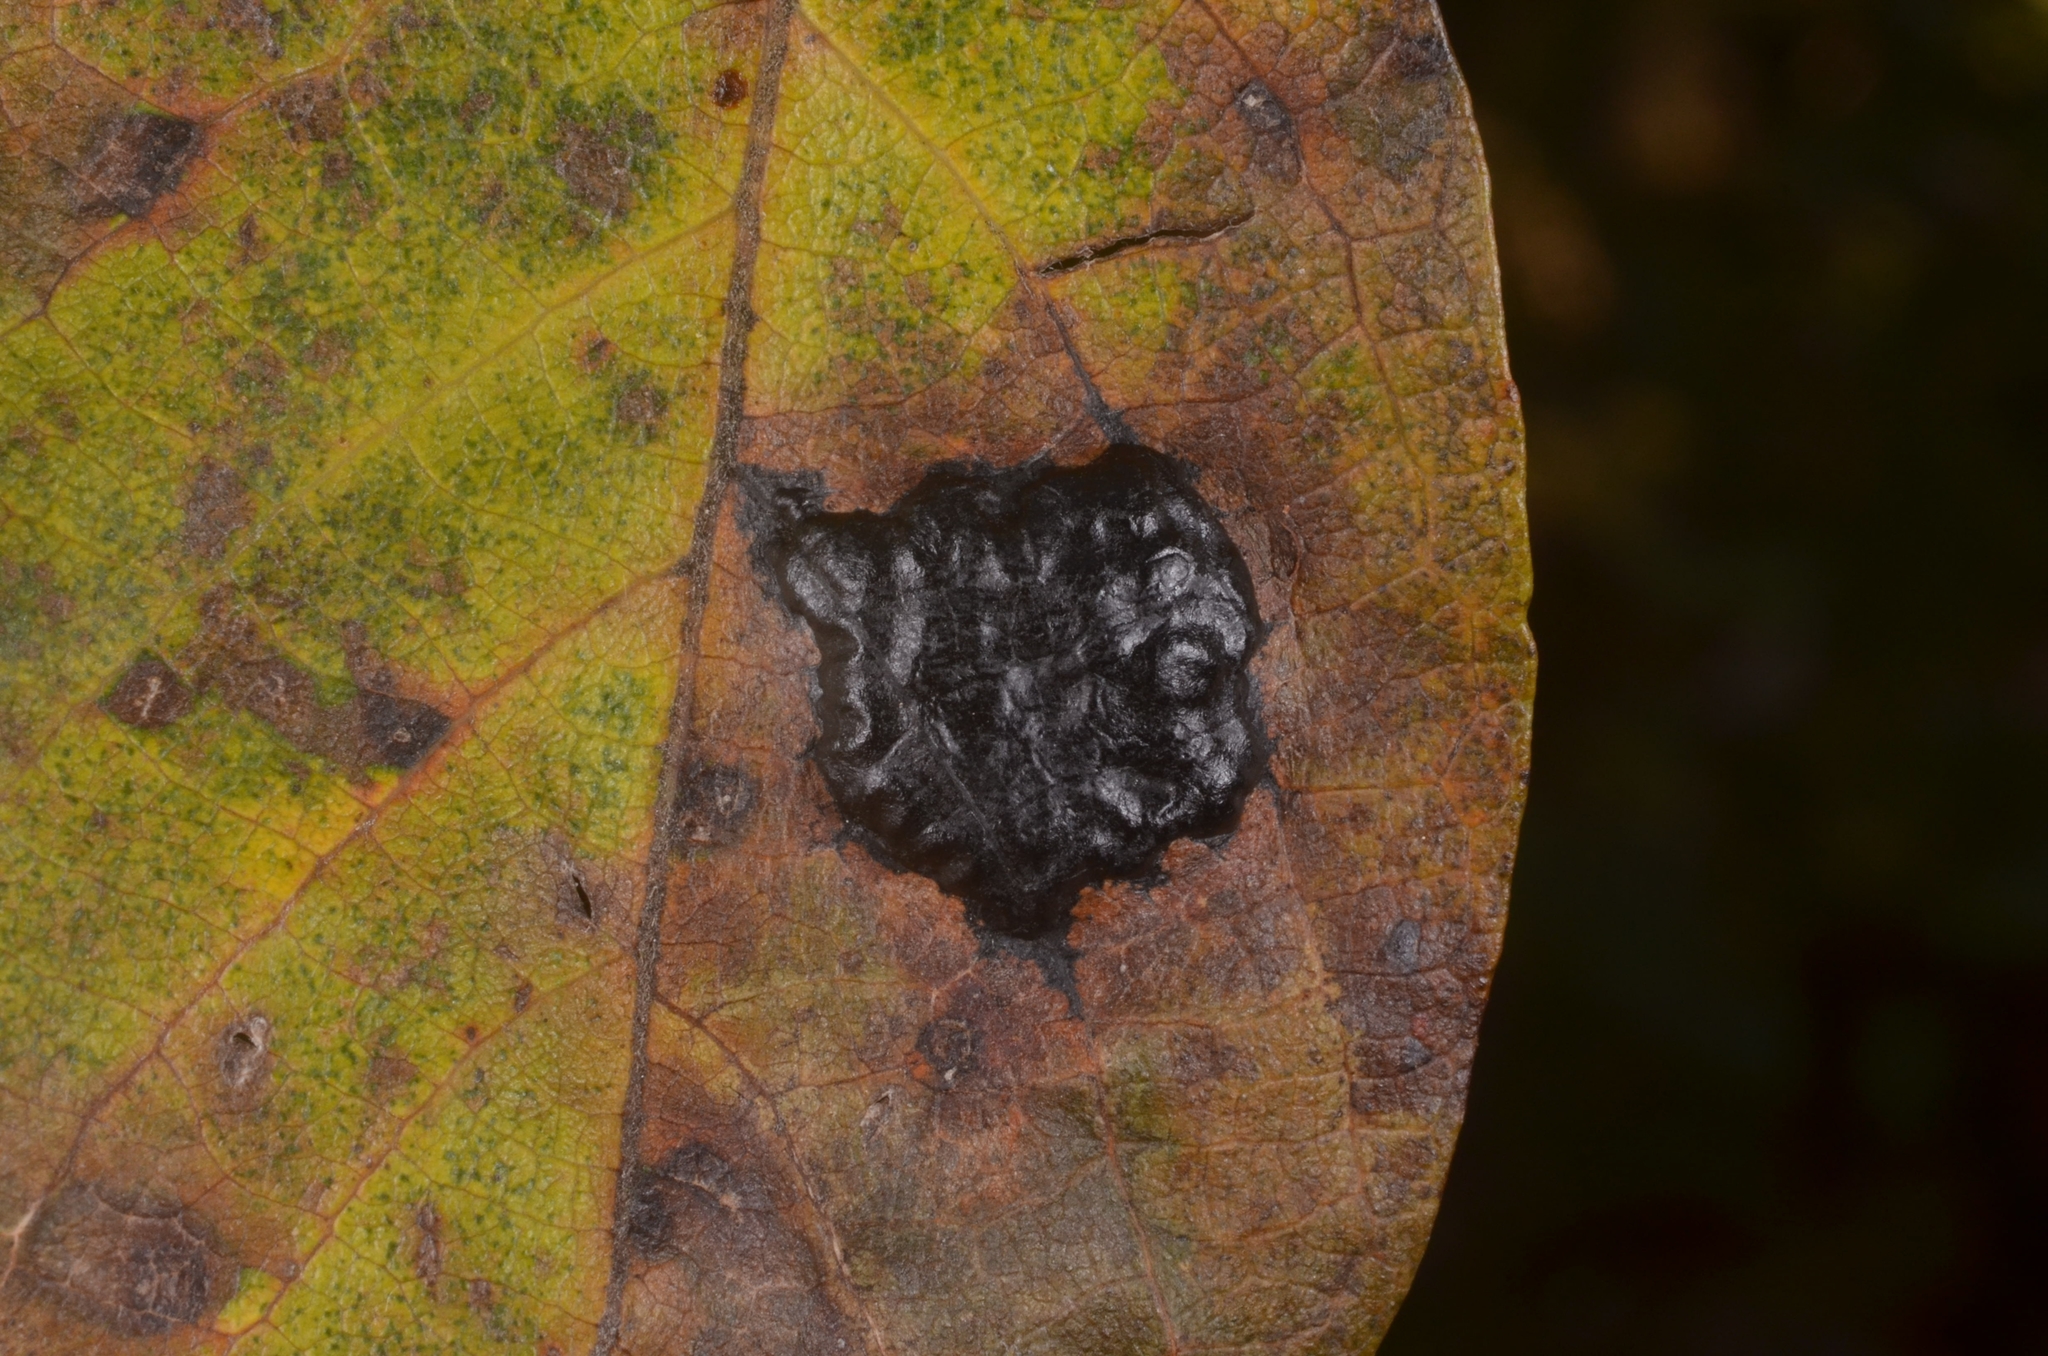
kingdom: Fungi
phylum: Ascomycota
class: Leotiomycetes
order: Rhytismatales
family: Rhytismataceae
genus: Rhytisma
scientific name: Rhytisma salicinum
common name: Willow tarspot
